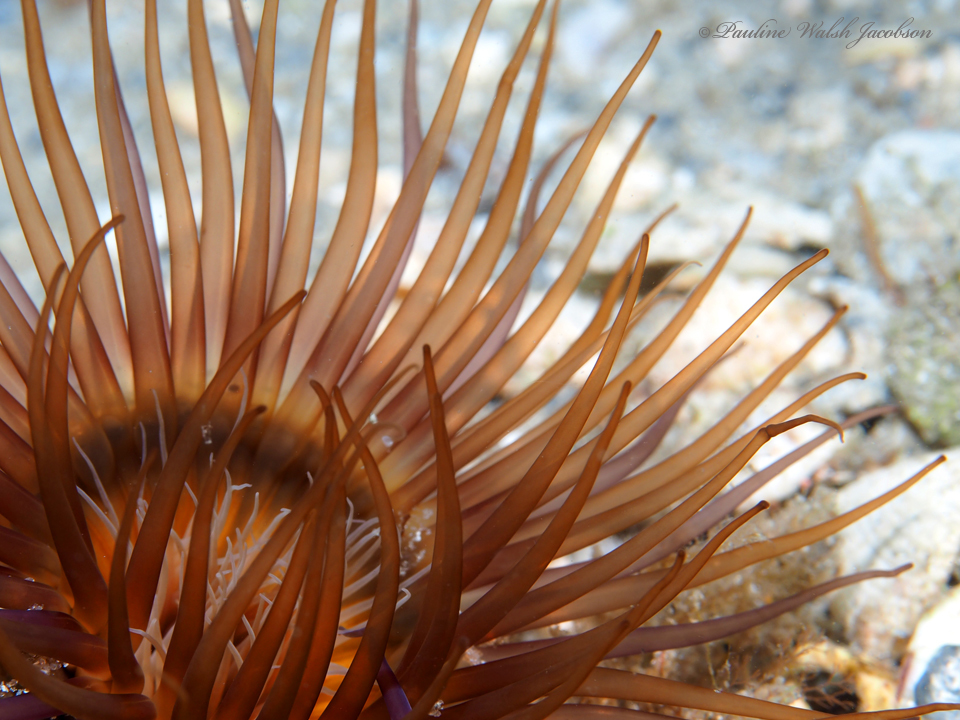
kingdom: Animalia
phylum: Cnidaria
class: Anthozoa
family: Cerianthidae
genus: Ceriantheopsis
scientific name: Ceriantheopsis americana
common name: American tube-dwelling anemone
